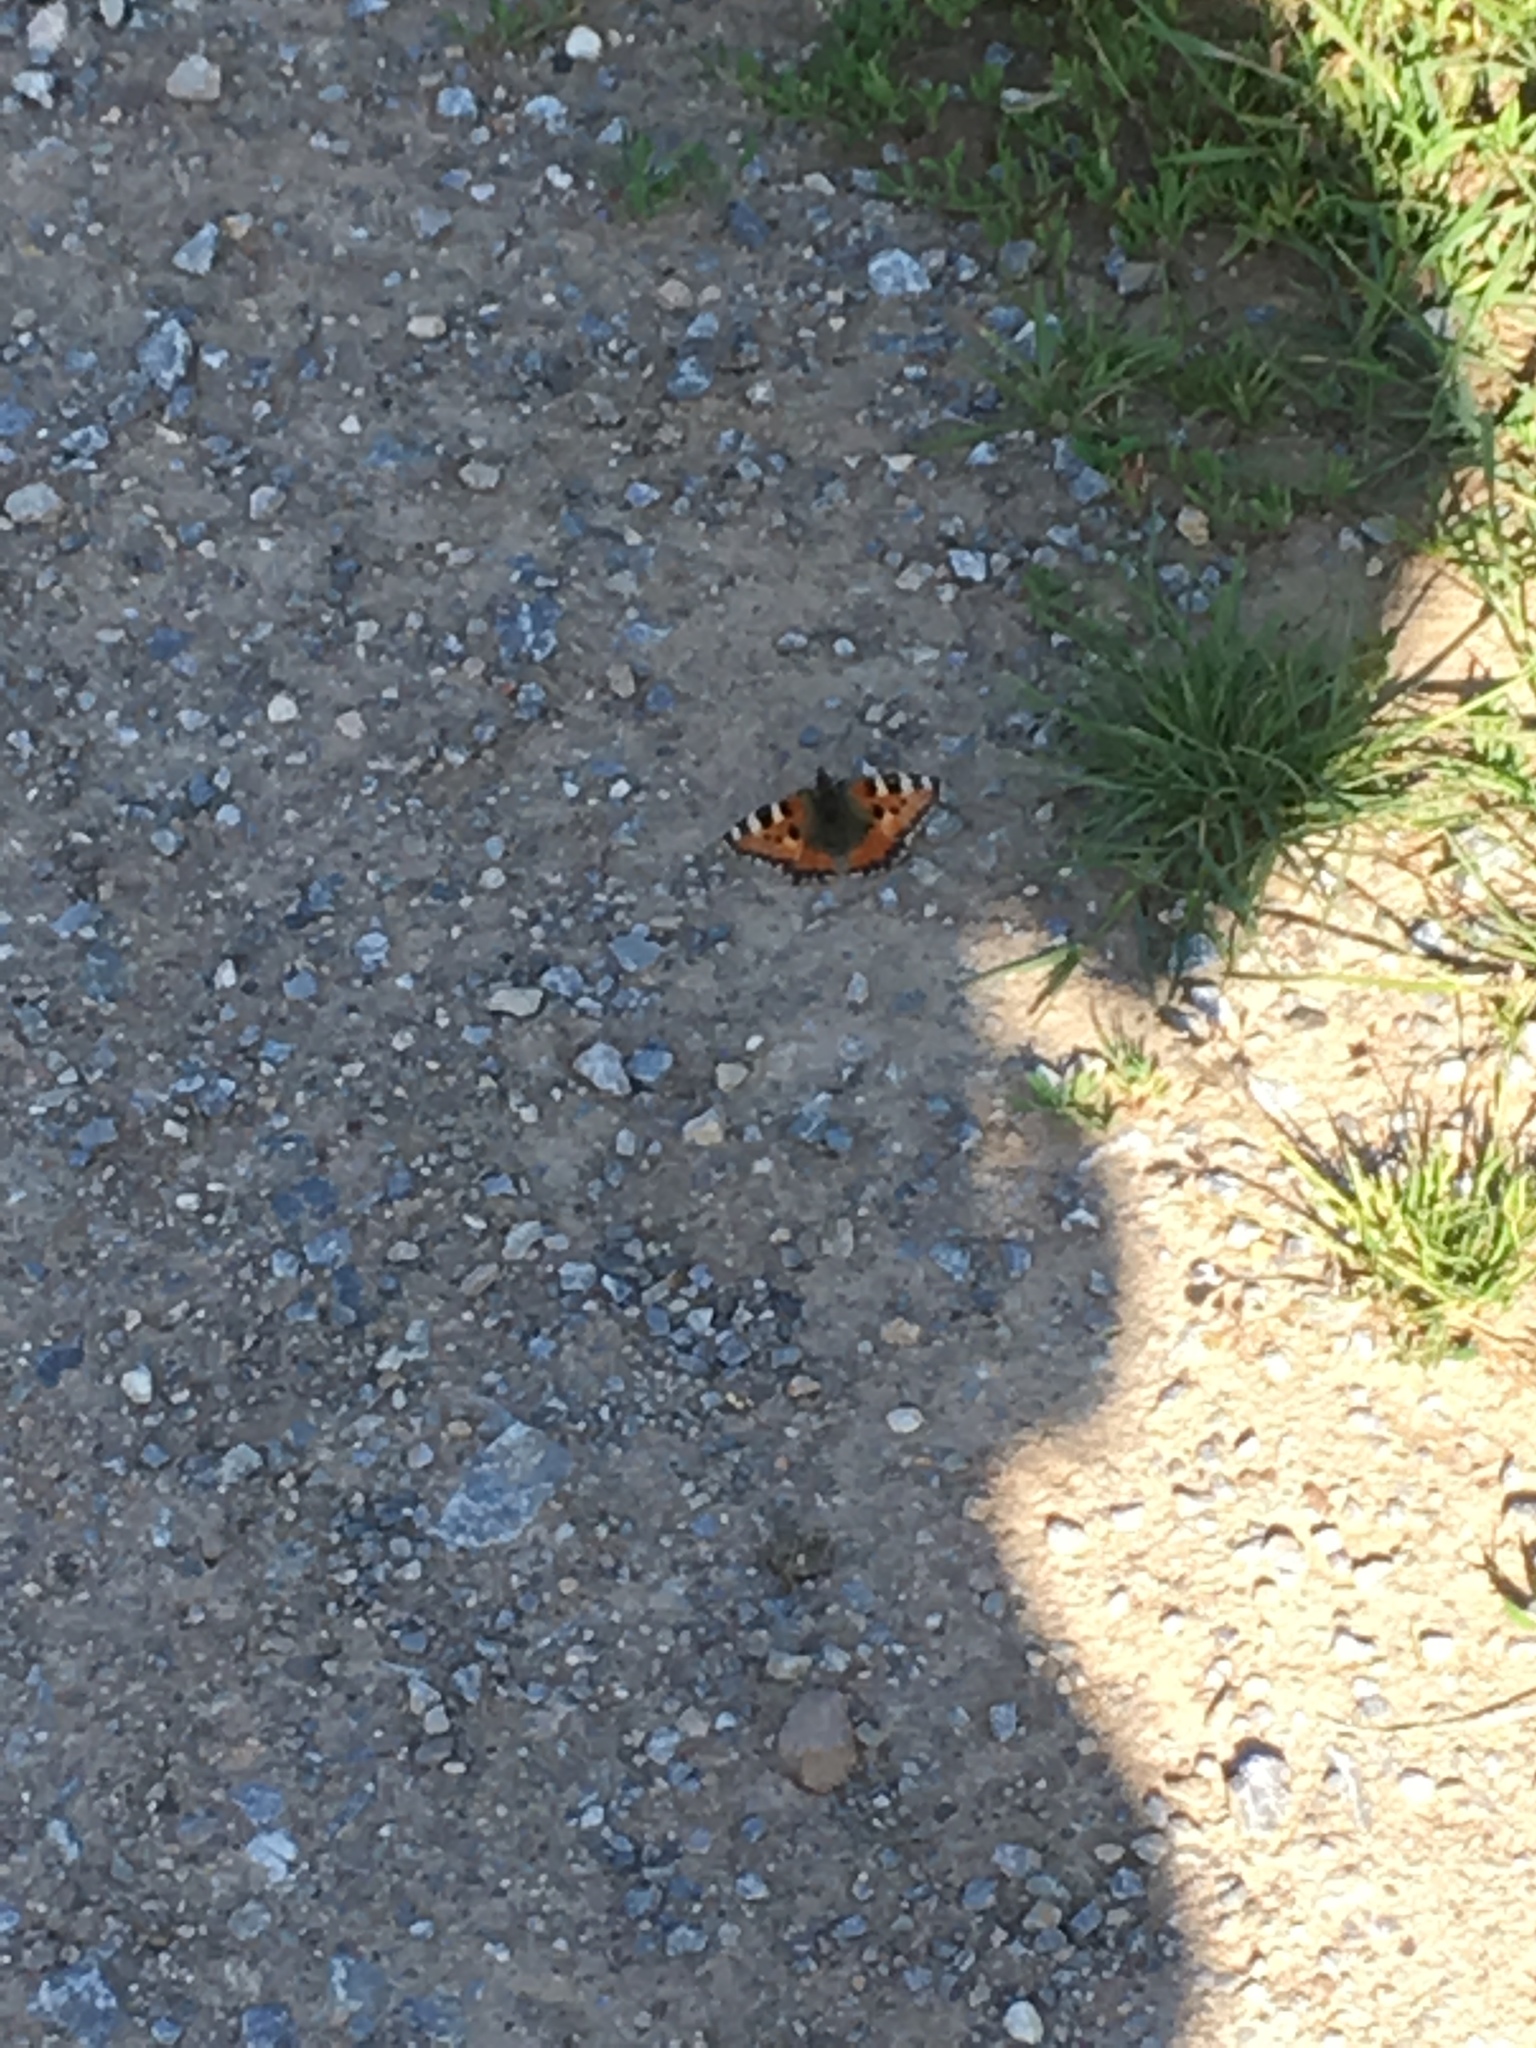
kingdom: Animalia
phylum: Arthropoda
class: Insecta
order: Lepidoptera
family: Nymphalidae
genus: Aglais
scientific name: Aglais urticae
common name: Small tortoiseshell
